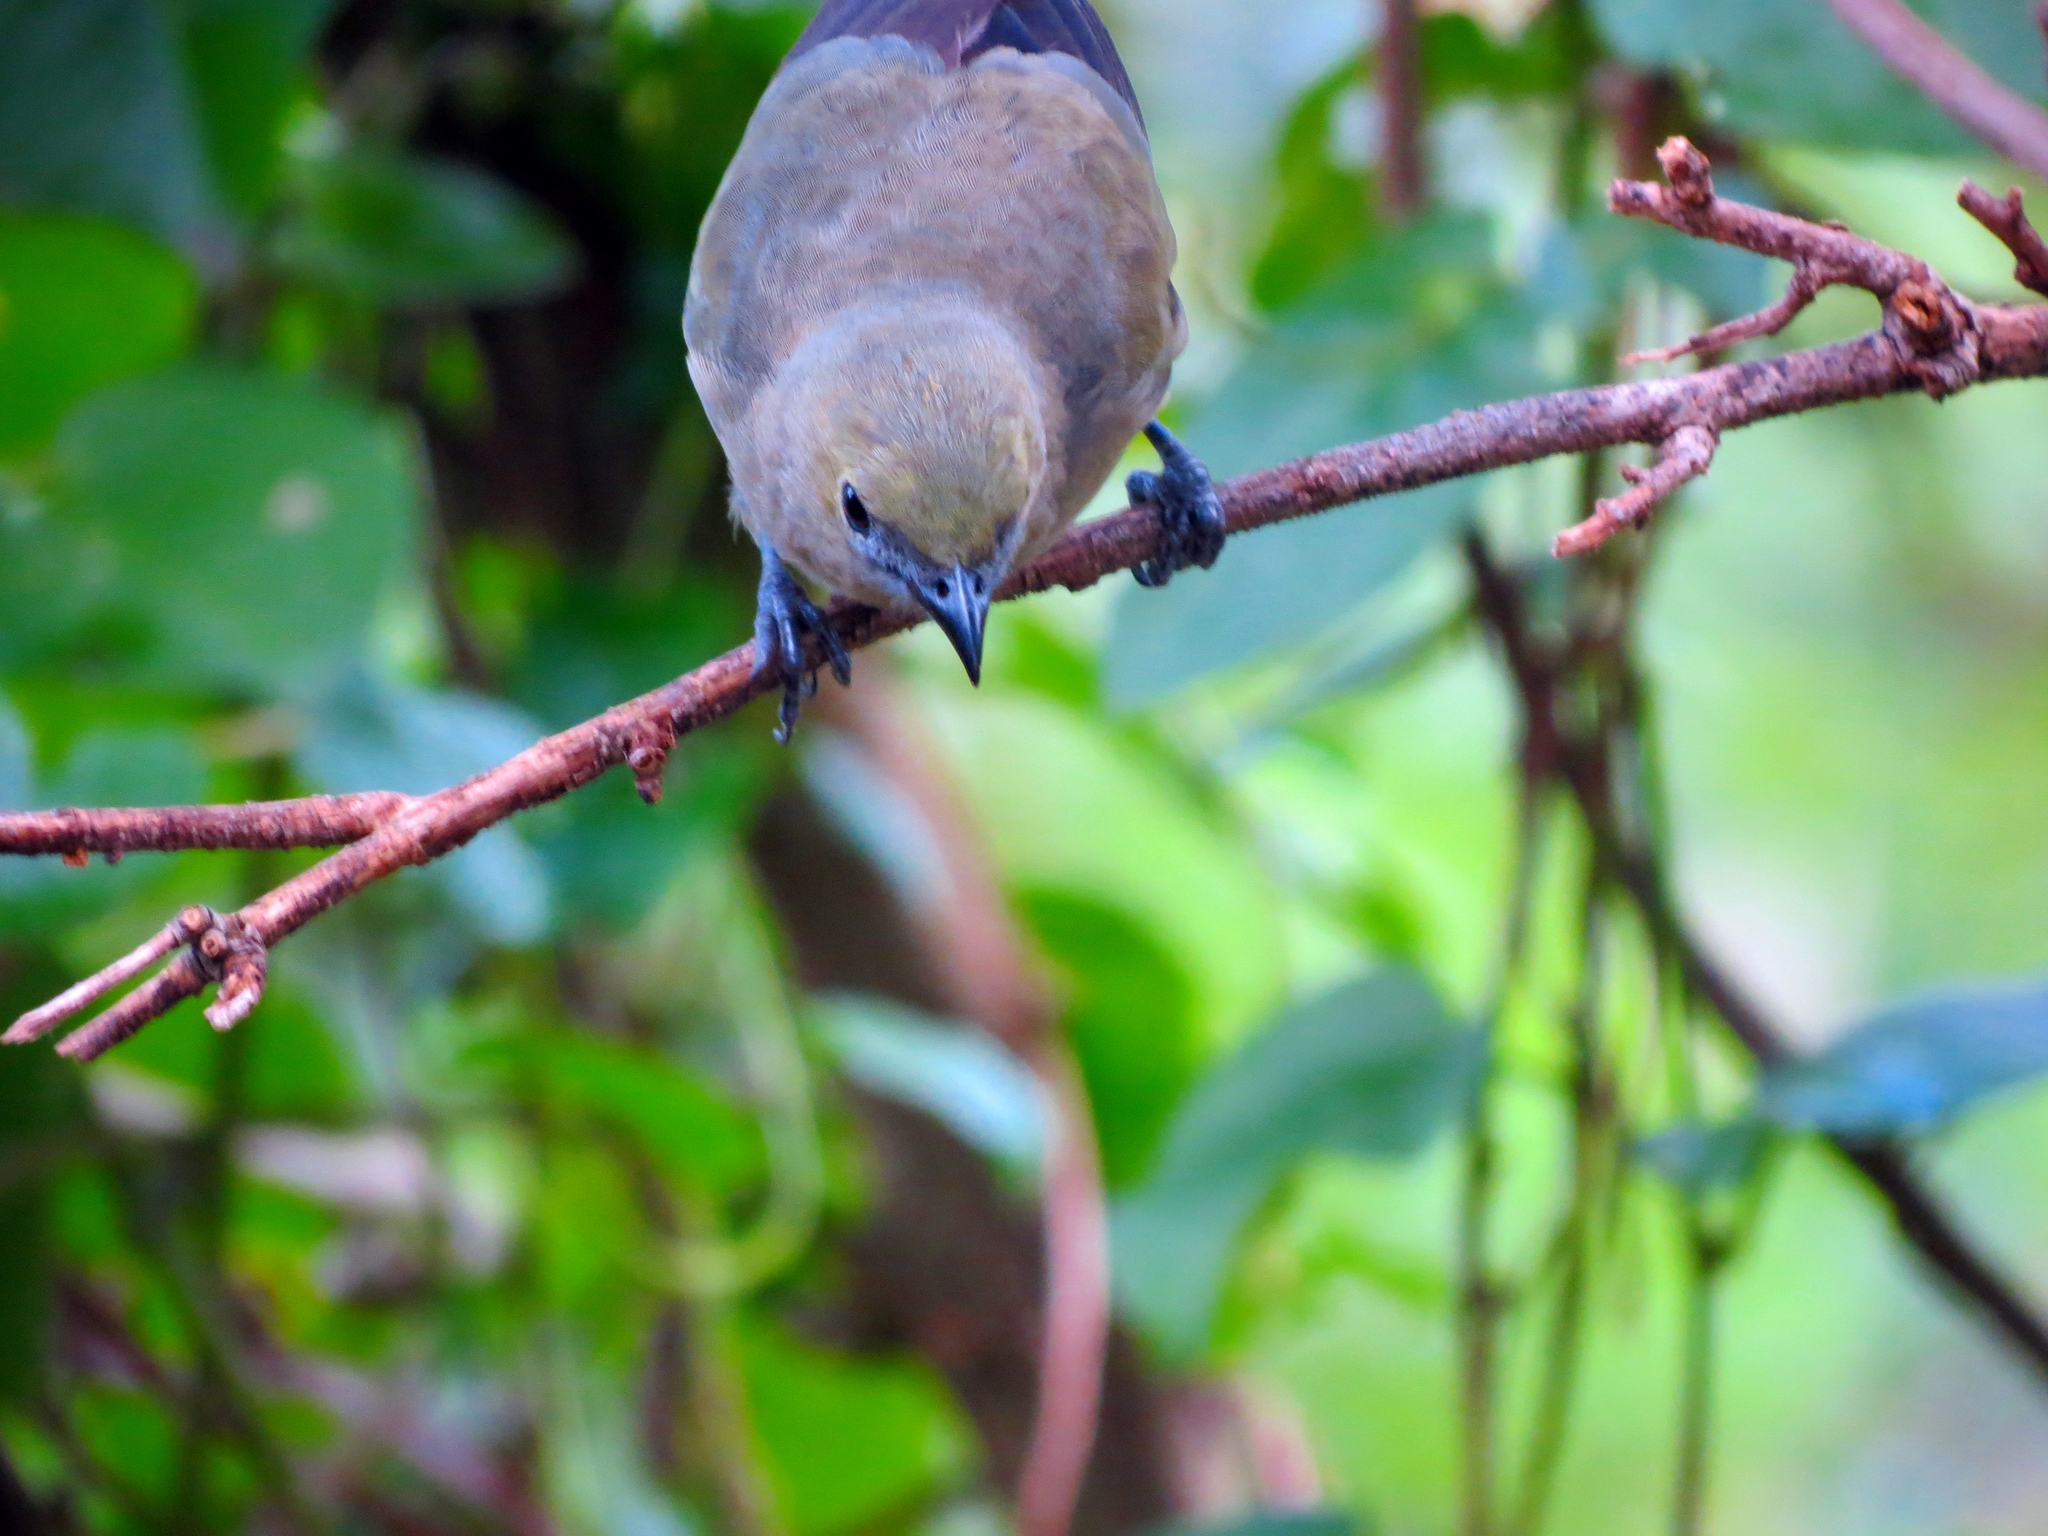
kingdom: Animalia
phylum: Chordata
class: Aves
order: Passeriformes
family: Thraupidae
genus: Thraupis
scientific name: Thraupis palmarum
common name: Palm tanager
